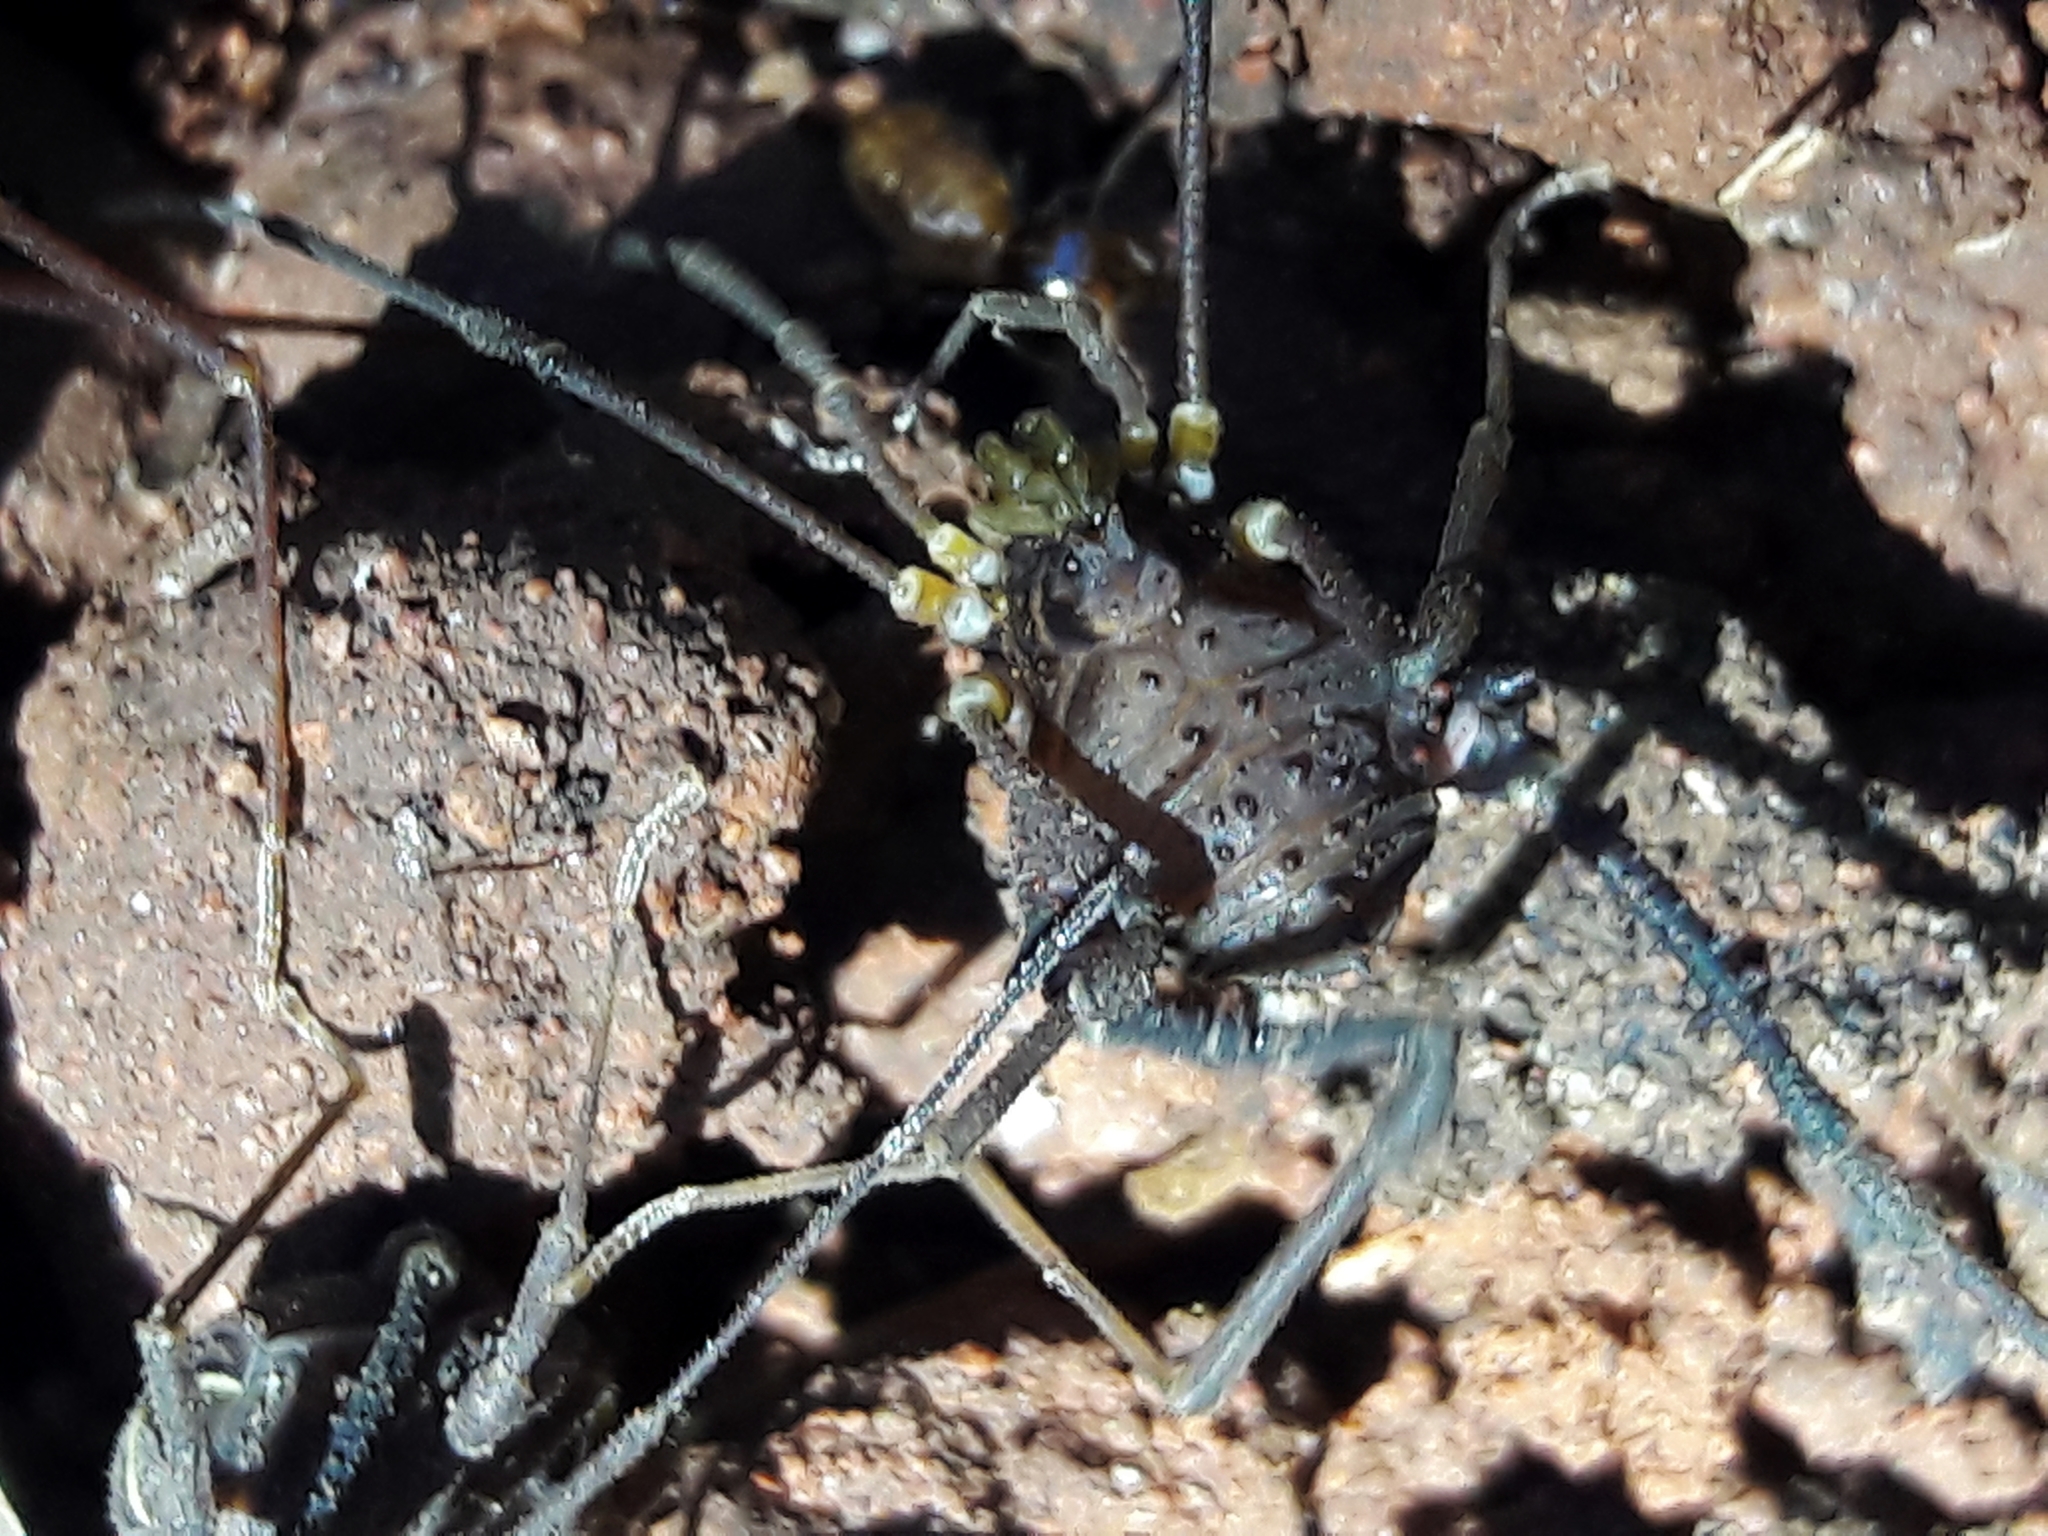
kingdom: Animalia
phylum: Arthropoda
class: Arachnida
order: Opiliones
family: Gonyleptidae
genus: Mischonyx
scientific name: Mischonyx squalidus
